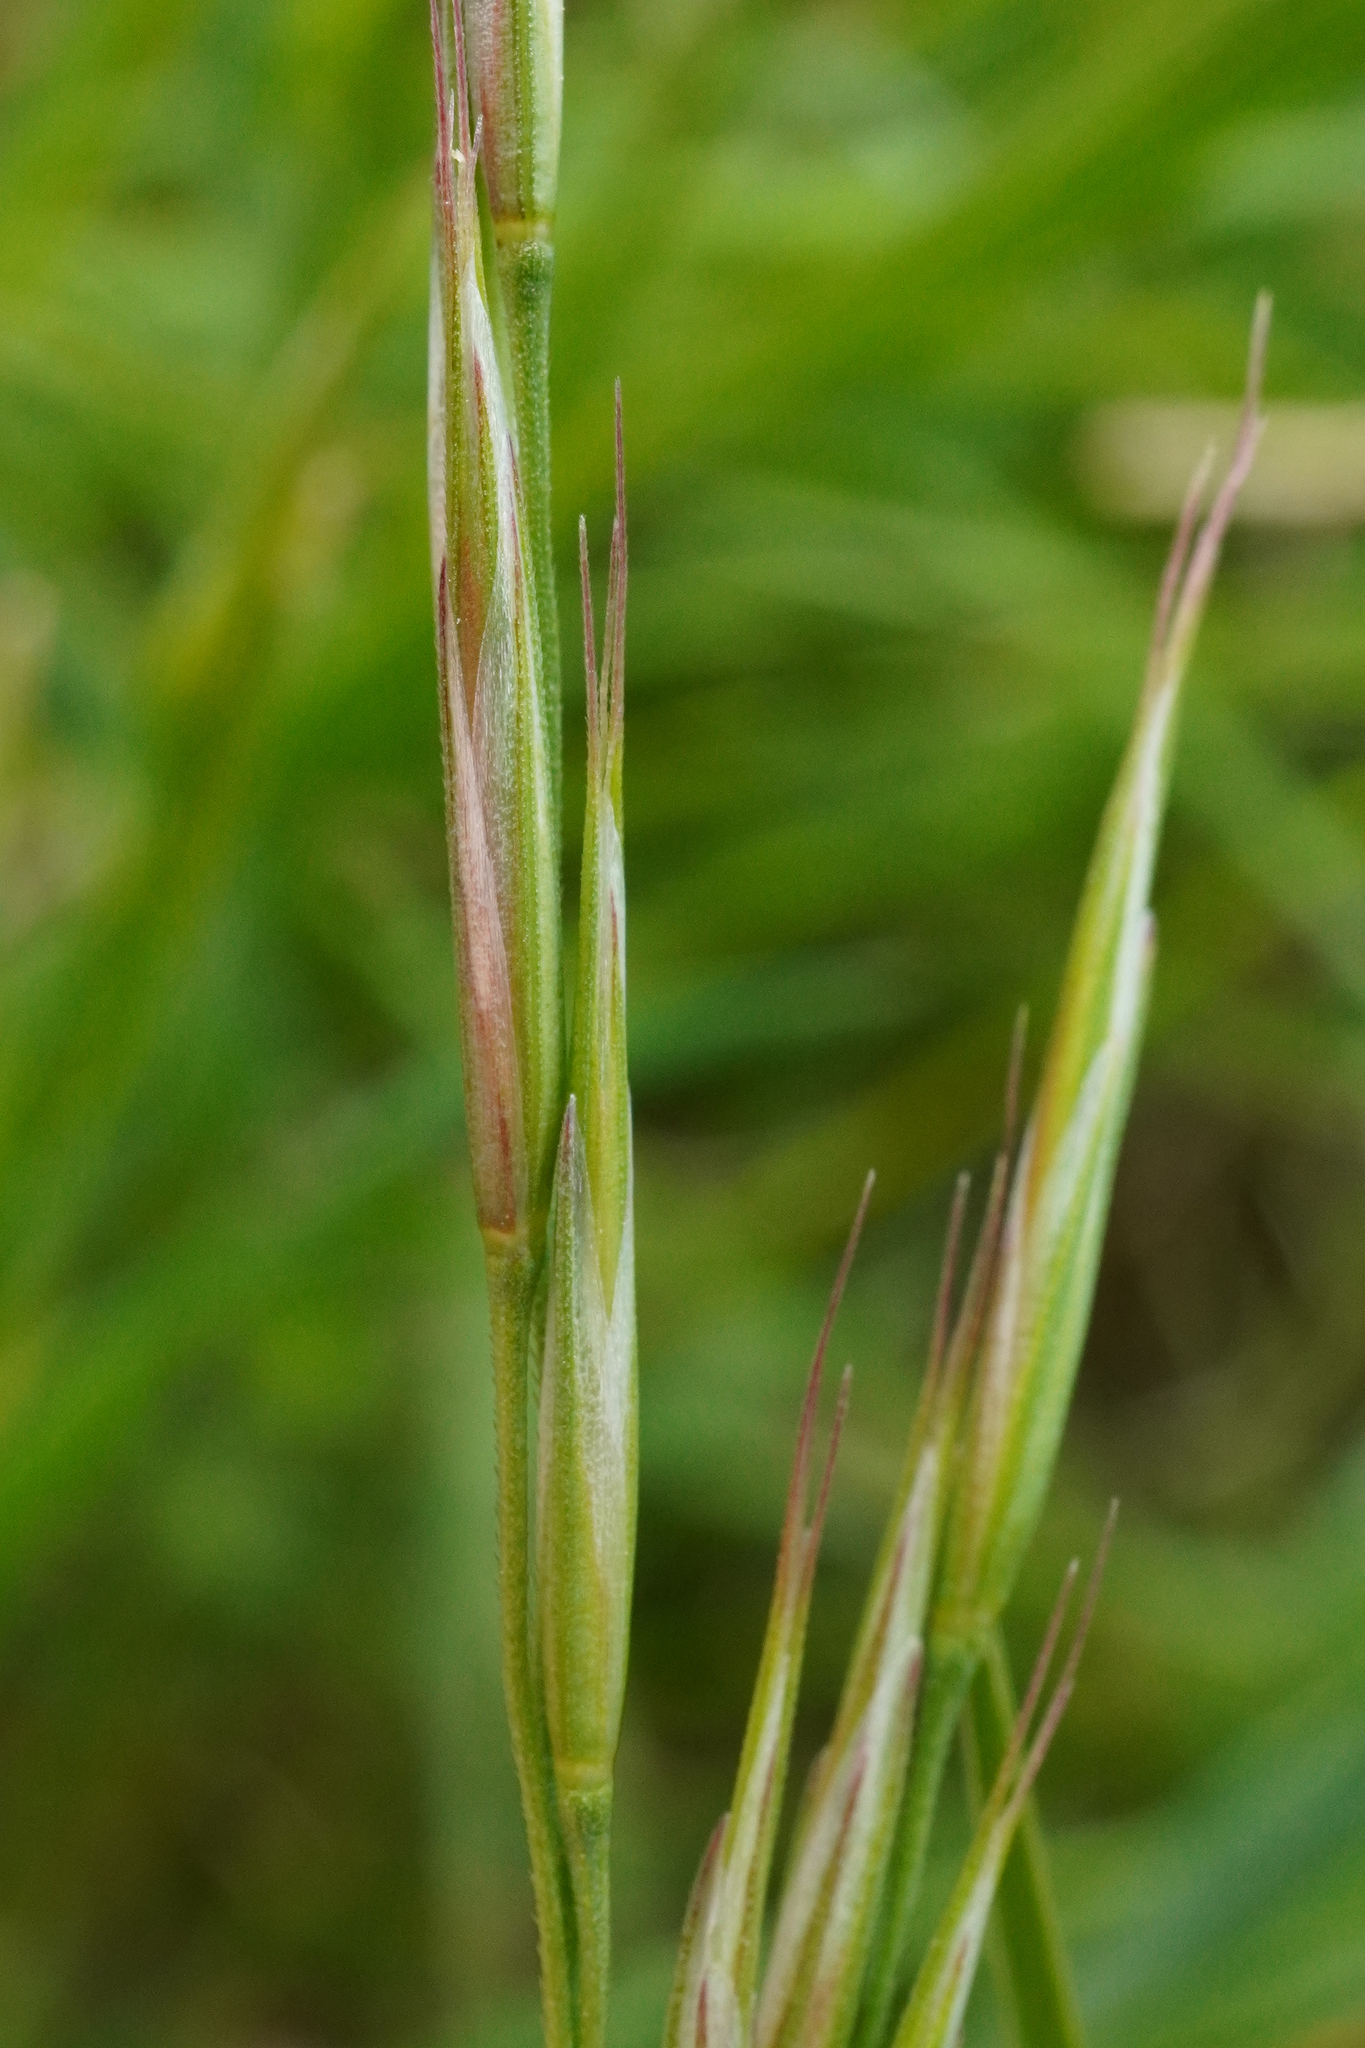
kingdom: Plantae
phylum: Tracheophyta
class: Liliopsida
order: Poales
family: Poaceae
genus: Bromus
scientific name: Bromus erectus
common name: Erect brome
